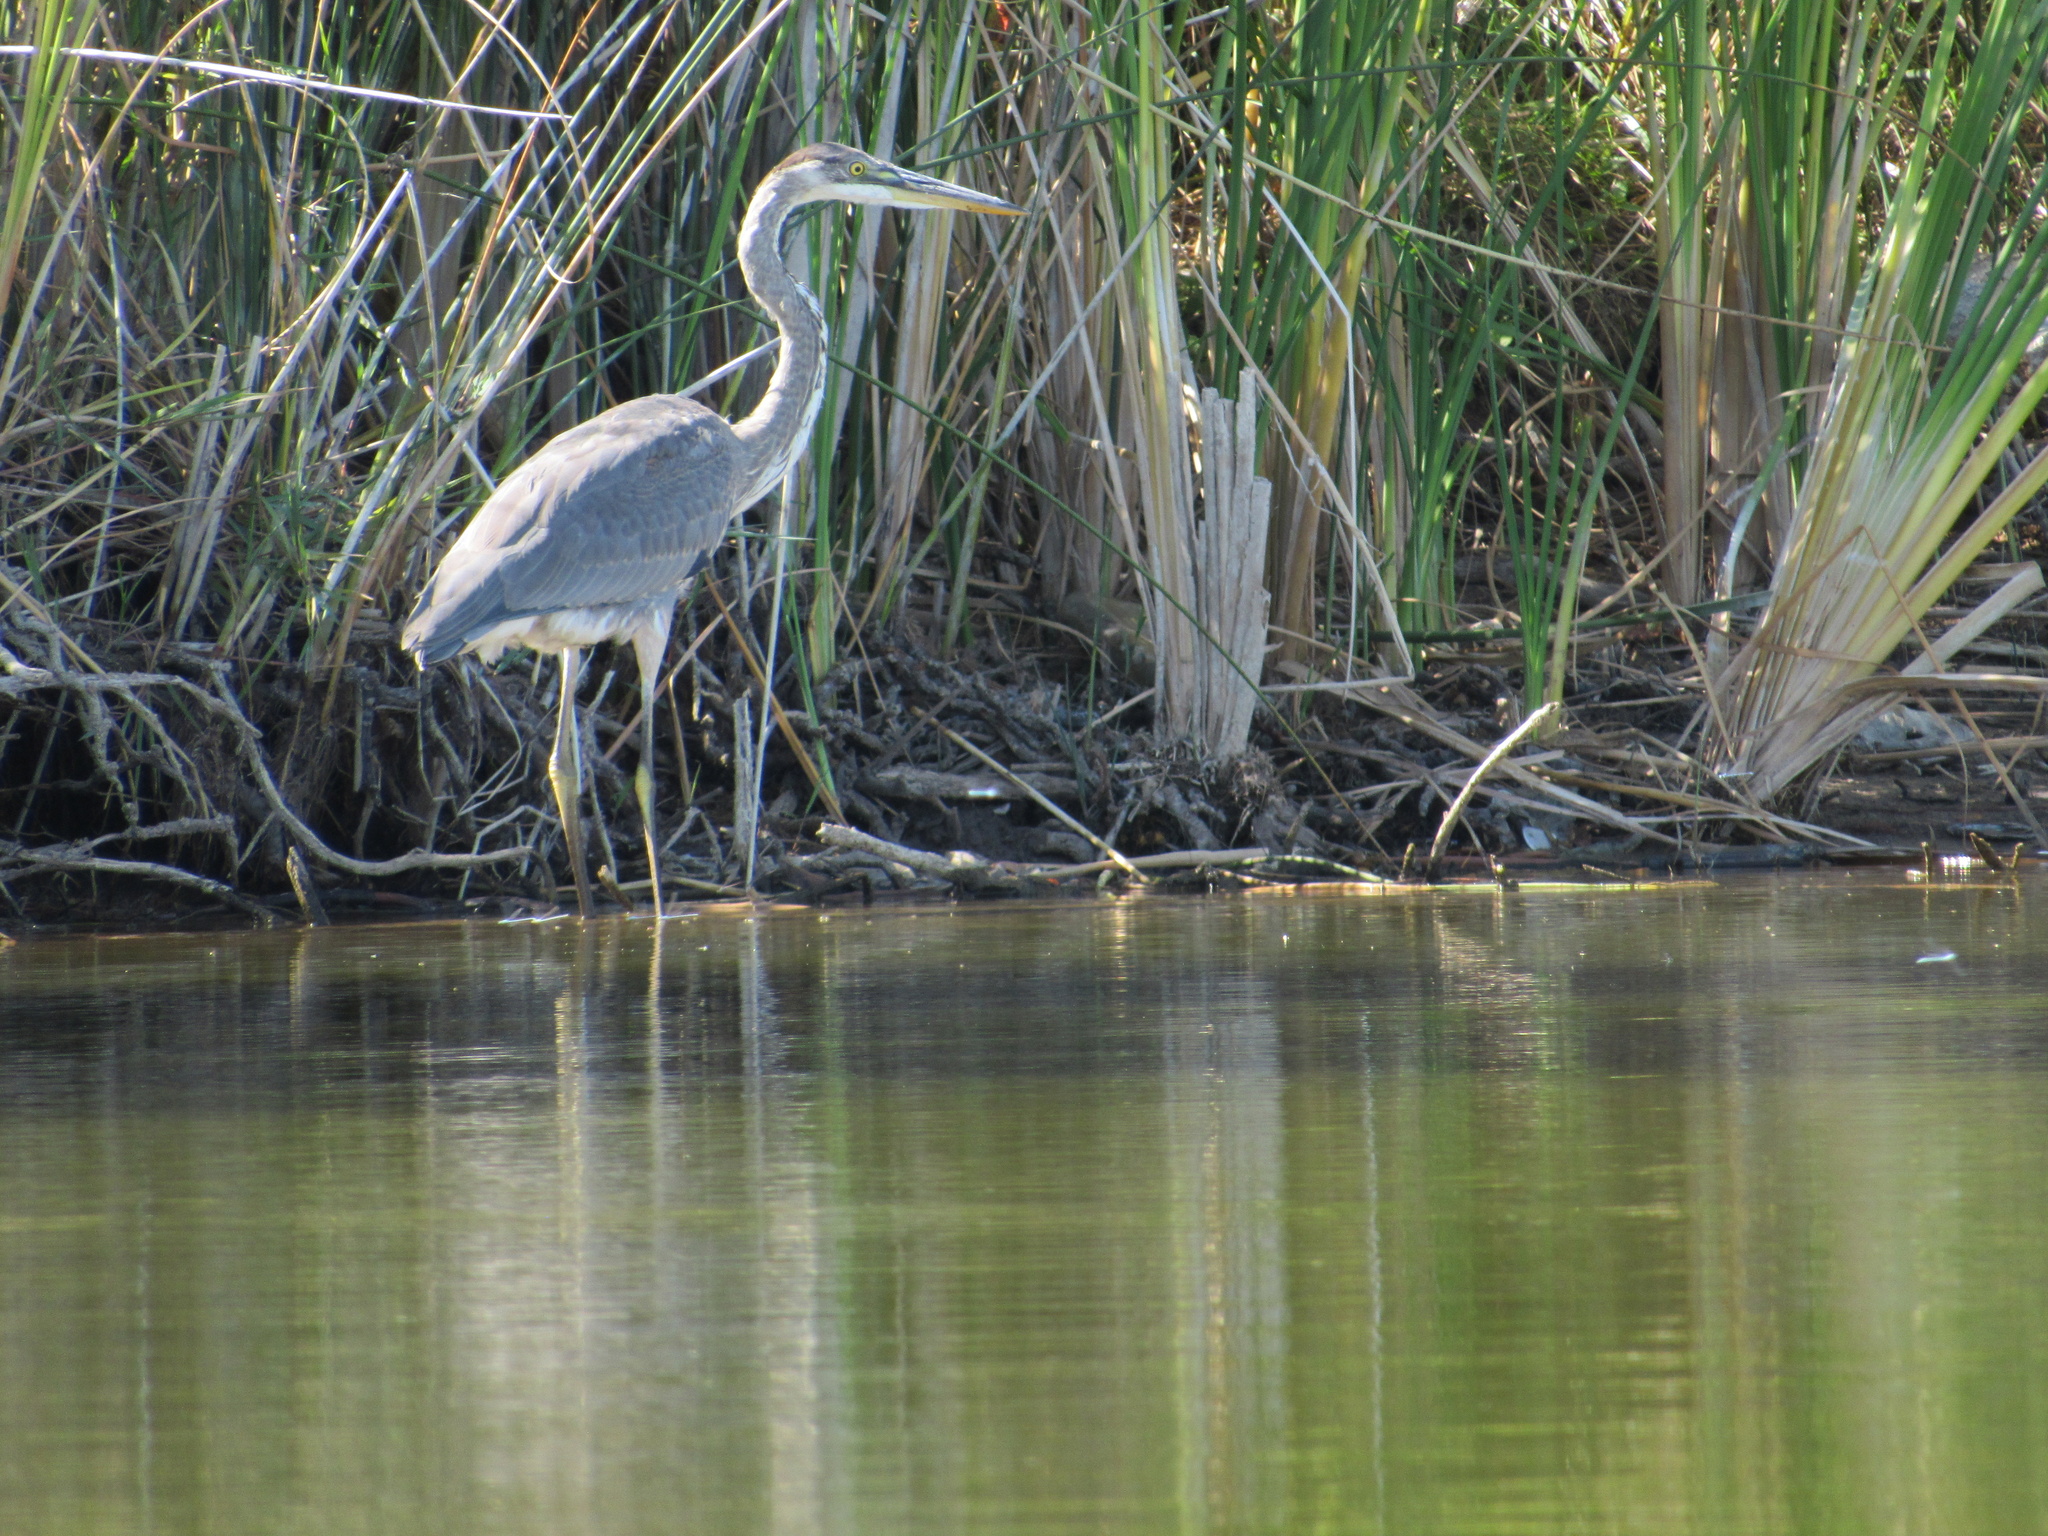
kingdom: Animalia
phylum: Chordata
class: Aves
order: Pelecaniformes
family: Ardeidae
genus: Ardea
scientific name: Ardea herodias
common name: Great blue heron
